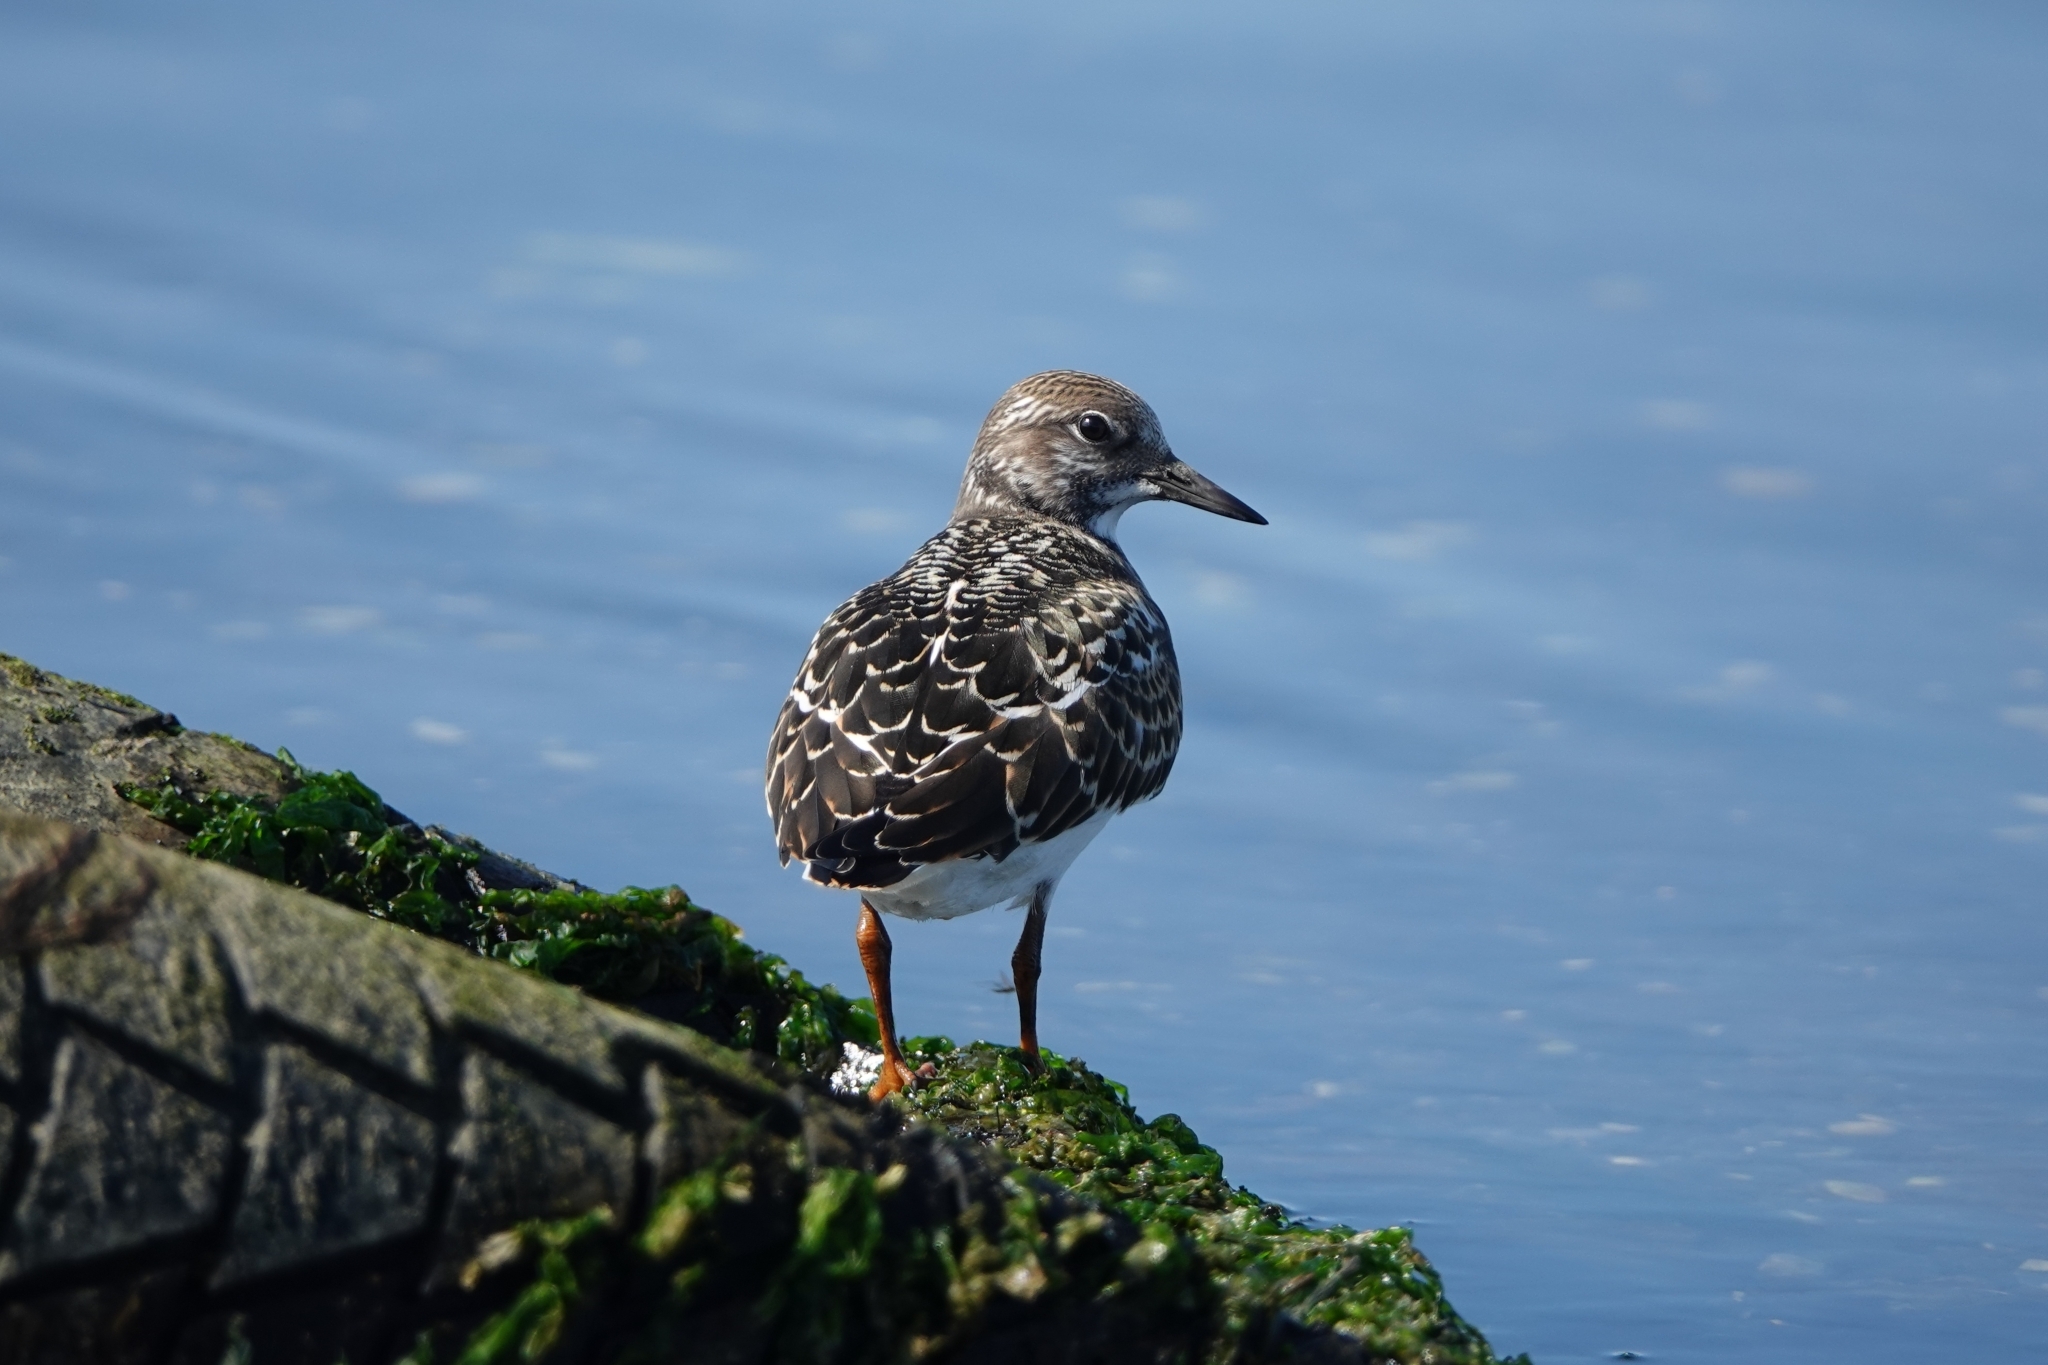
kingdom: Animalia
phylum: Chordata
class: Aves
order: Charadriiformes
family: Scolopacidae
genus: Arenaria
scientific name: Arenaria interpres
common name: Ruddy turnstone
